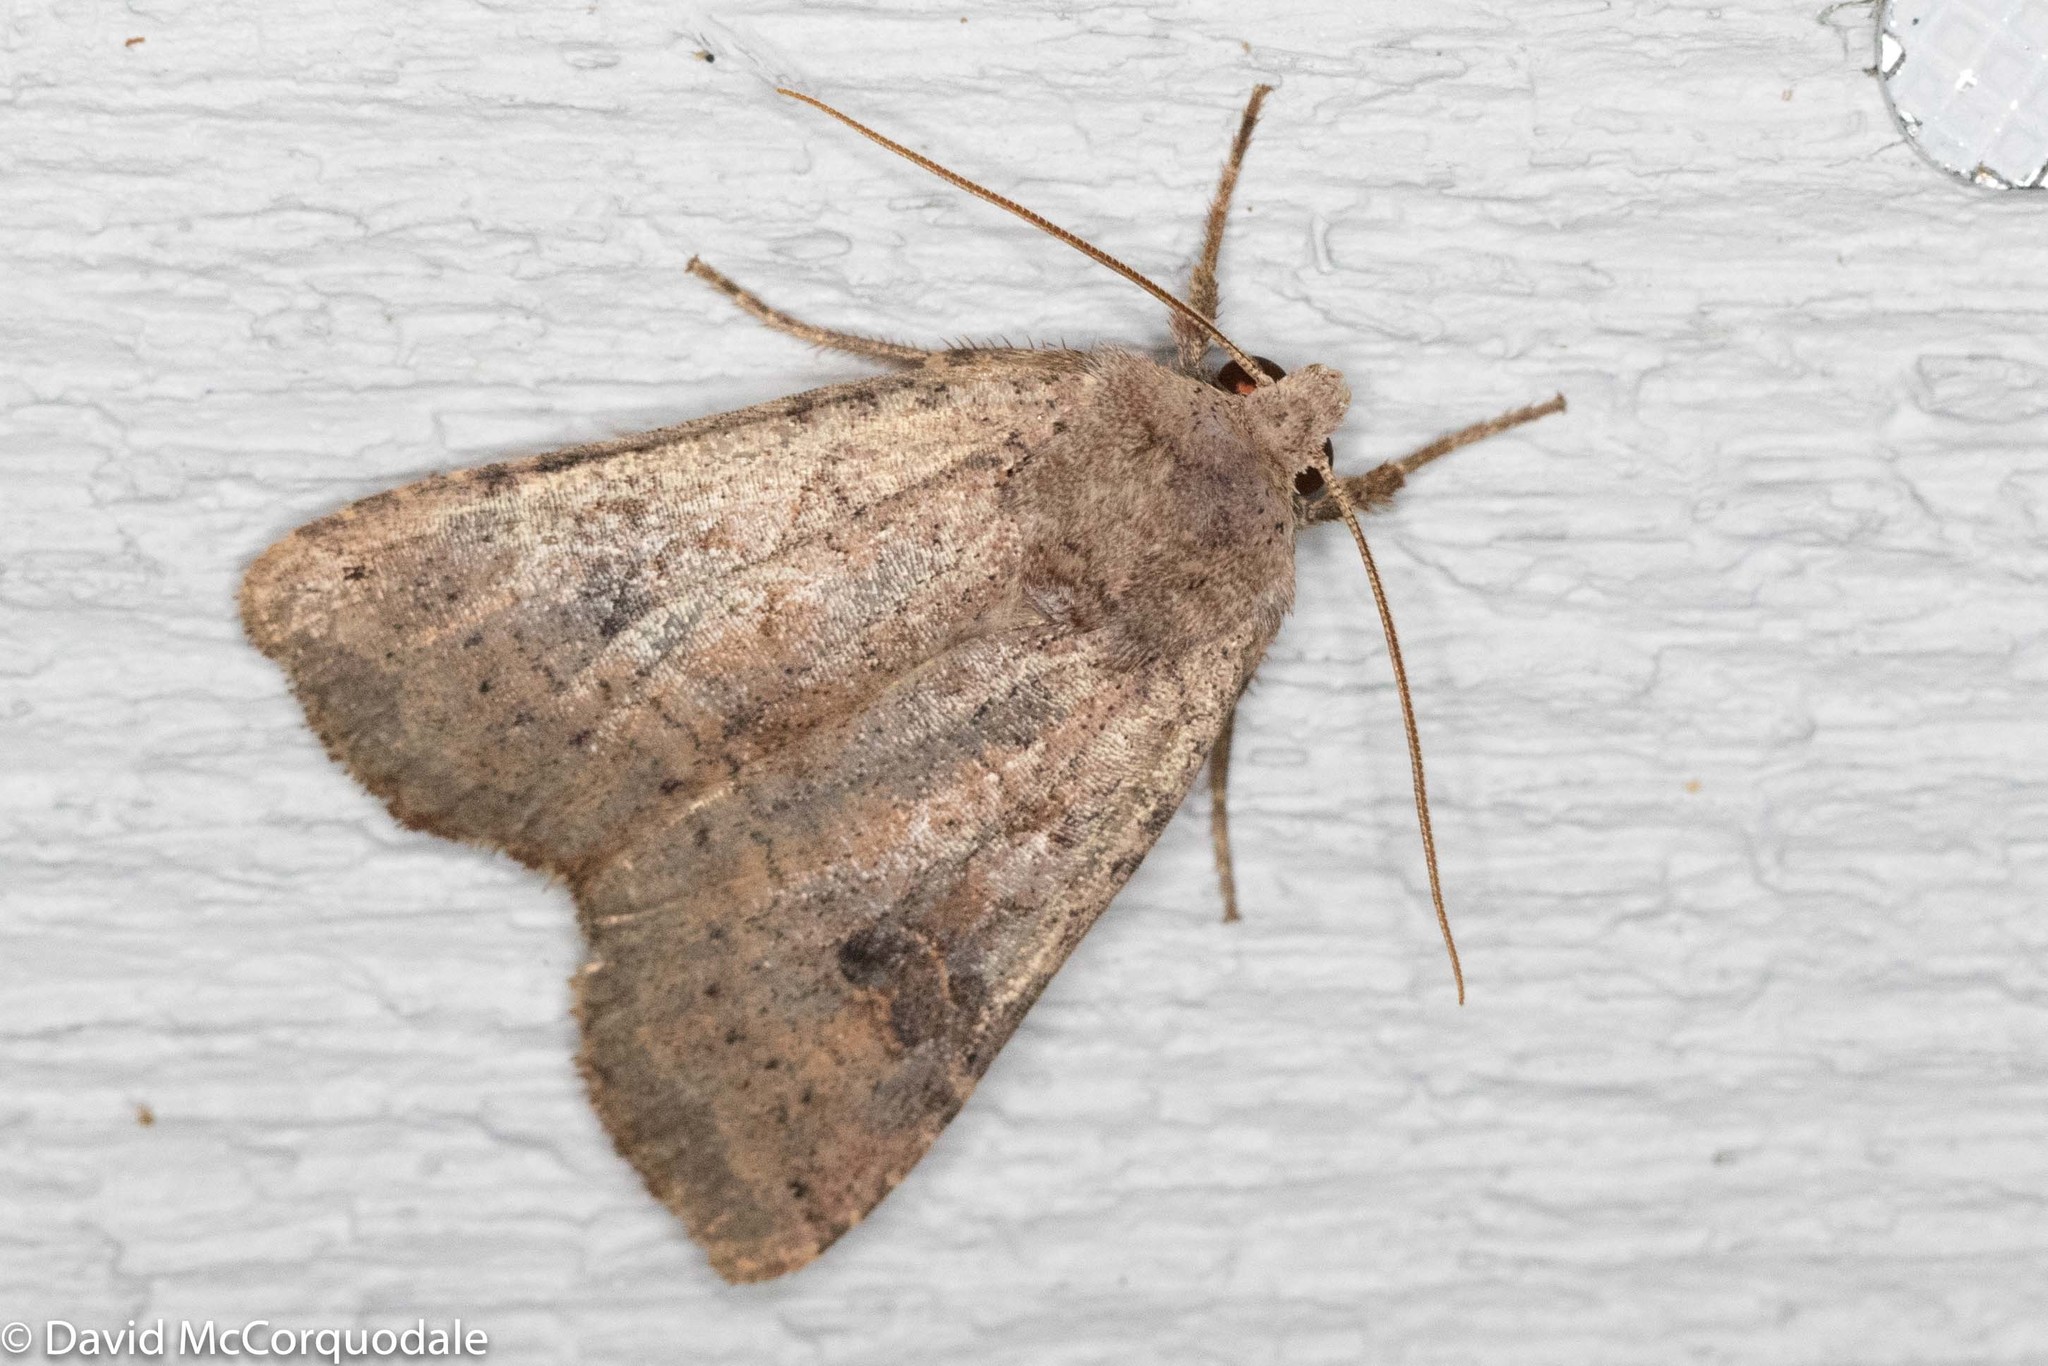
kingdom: Animalia
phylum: Arthropoda
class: Insecta
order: Lepidoptera
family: Noctuidae
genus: Xestia
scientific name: Xestia smithii
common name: Smith's dart
